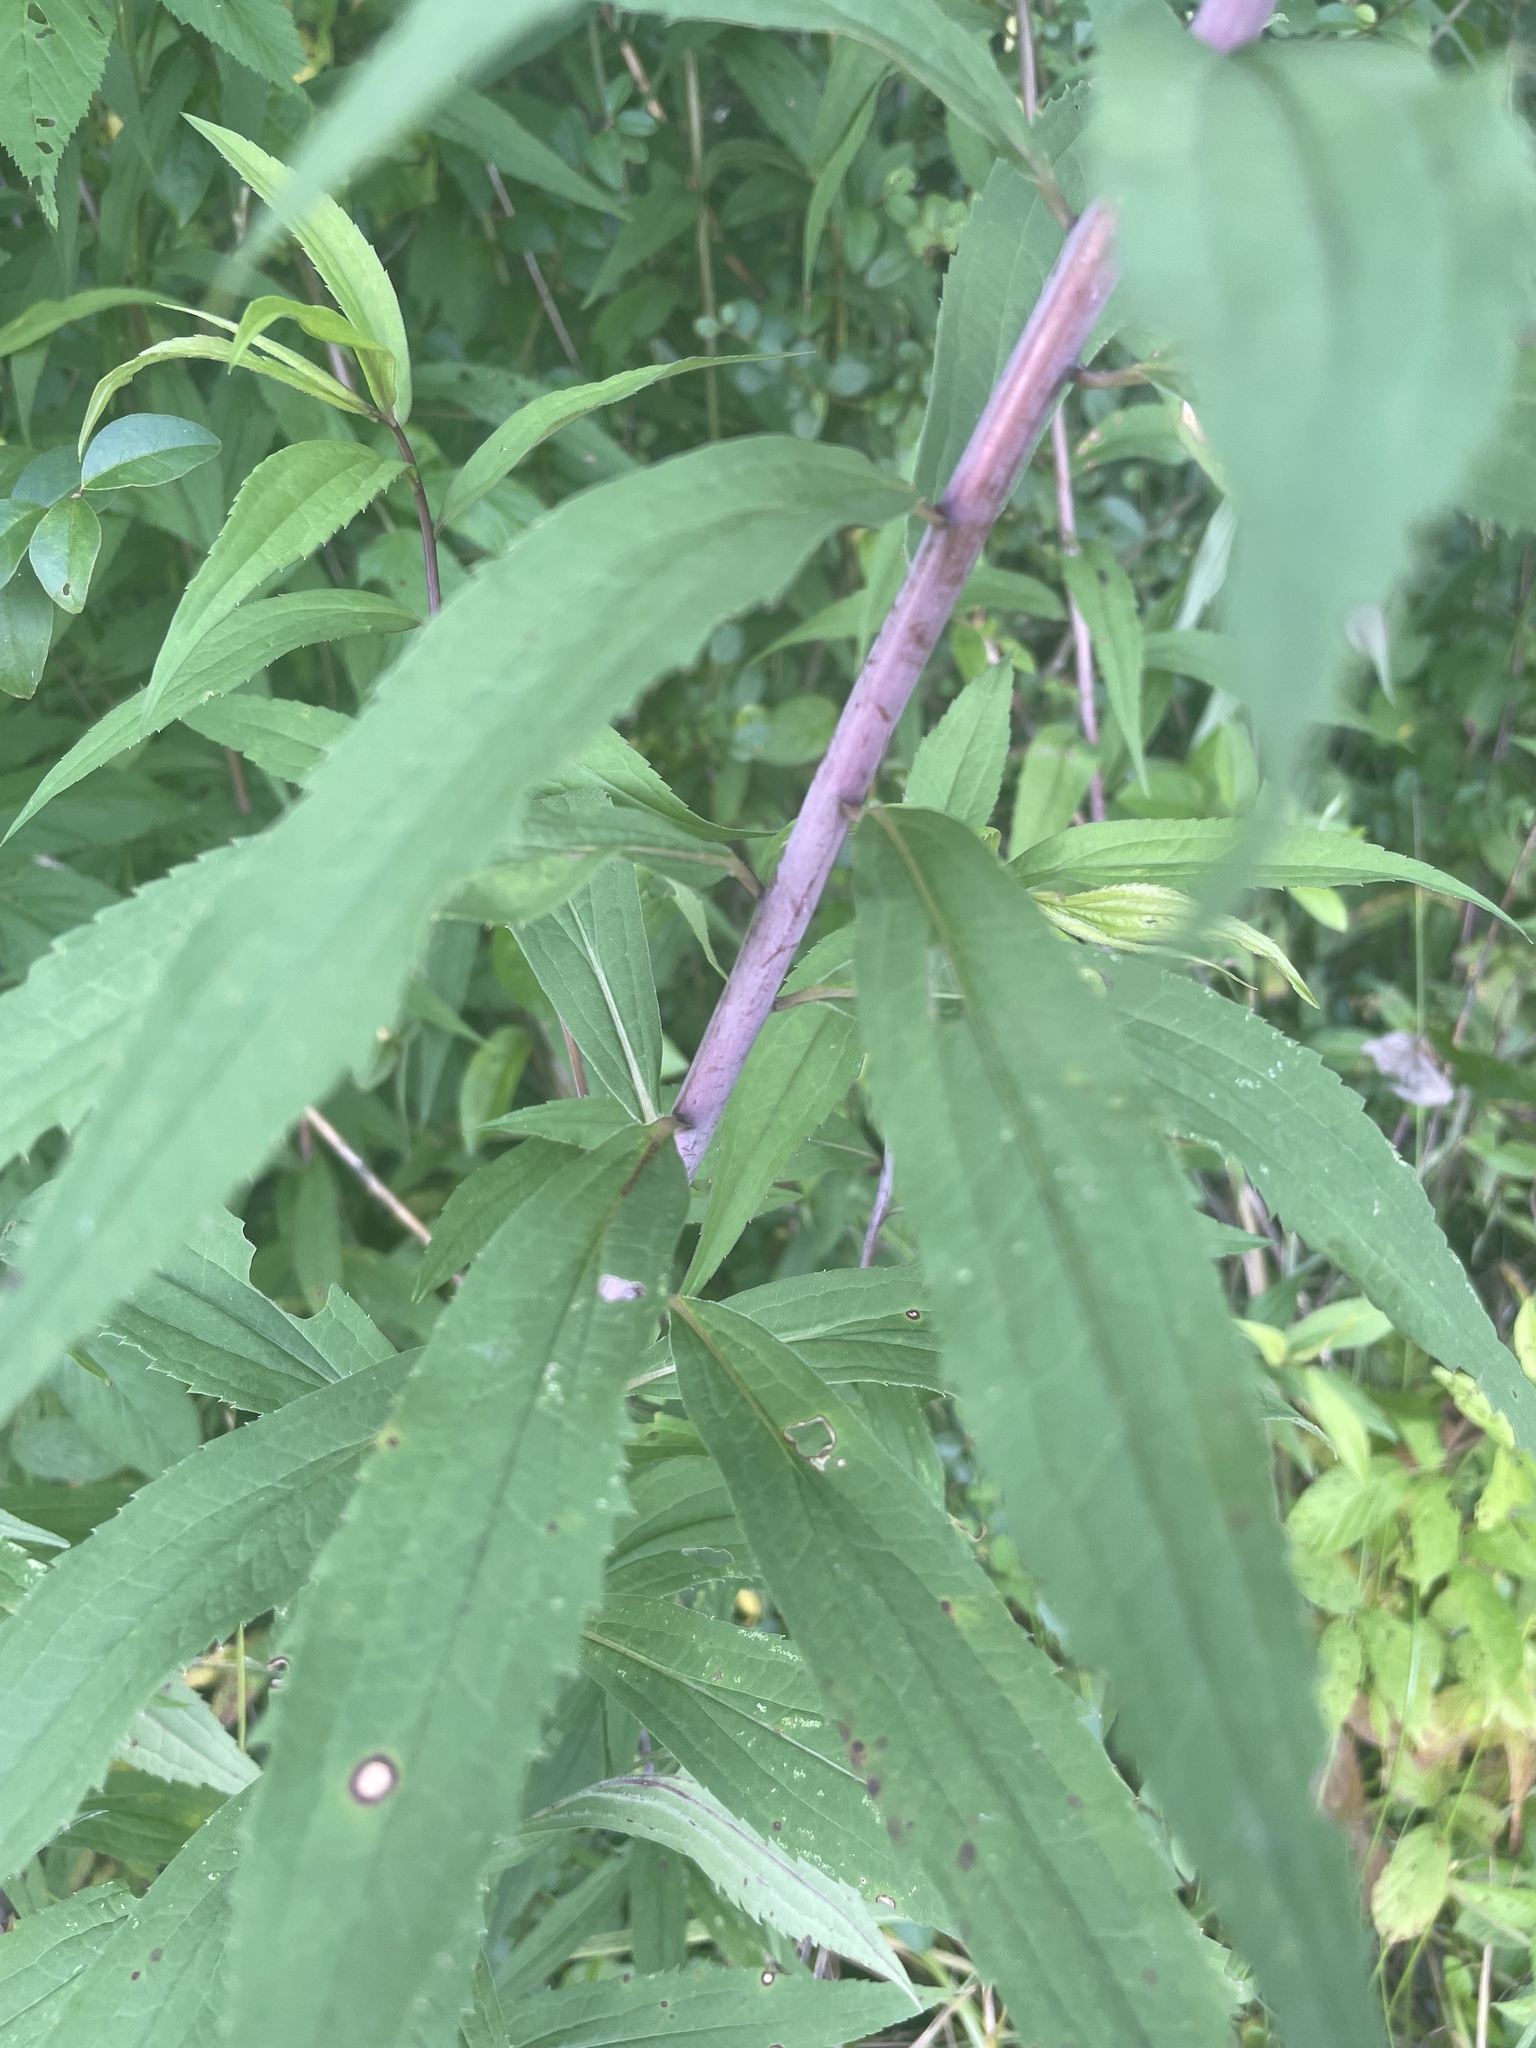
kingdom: Plantae
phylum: Tracheophyta
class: Magnoliopsida
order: Asterales
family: Asteraceae
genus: Solidago
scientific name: Solidago gigantea
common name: Giant goldenrod
